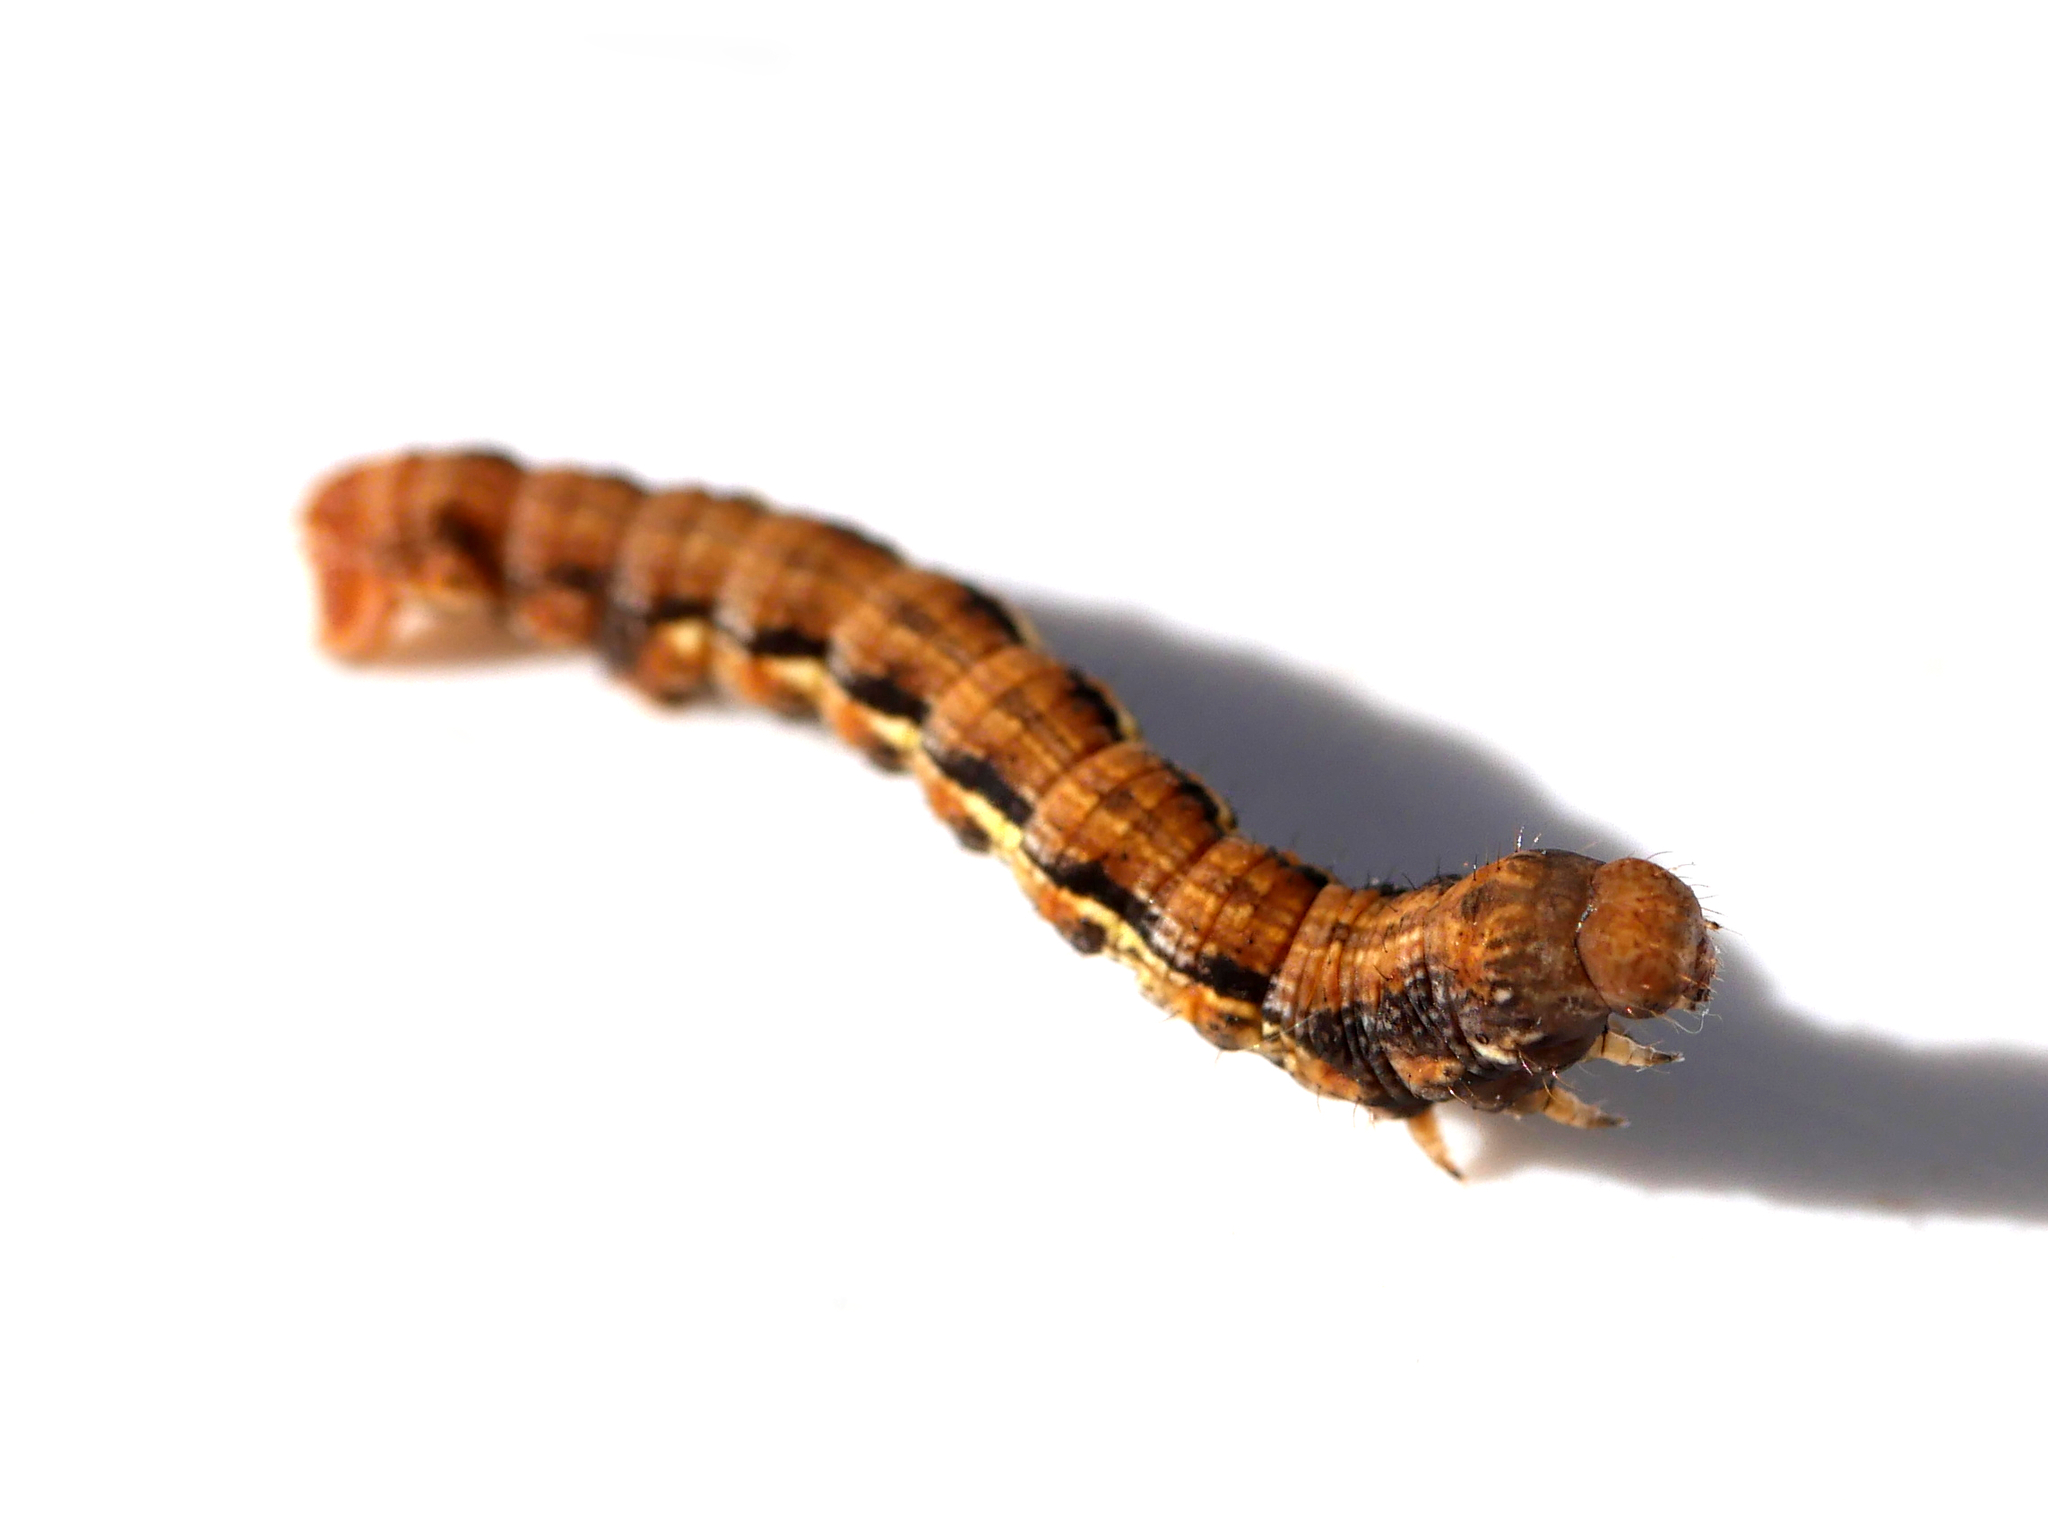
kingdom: Animalia
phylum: Arthropoda
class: Insecta
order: Lepidoptera
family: Geometridae
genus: Erannis
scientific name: Erannis defoliaria
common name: Mottled umber
